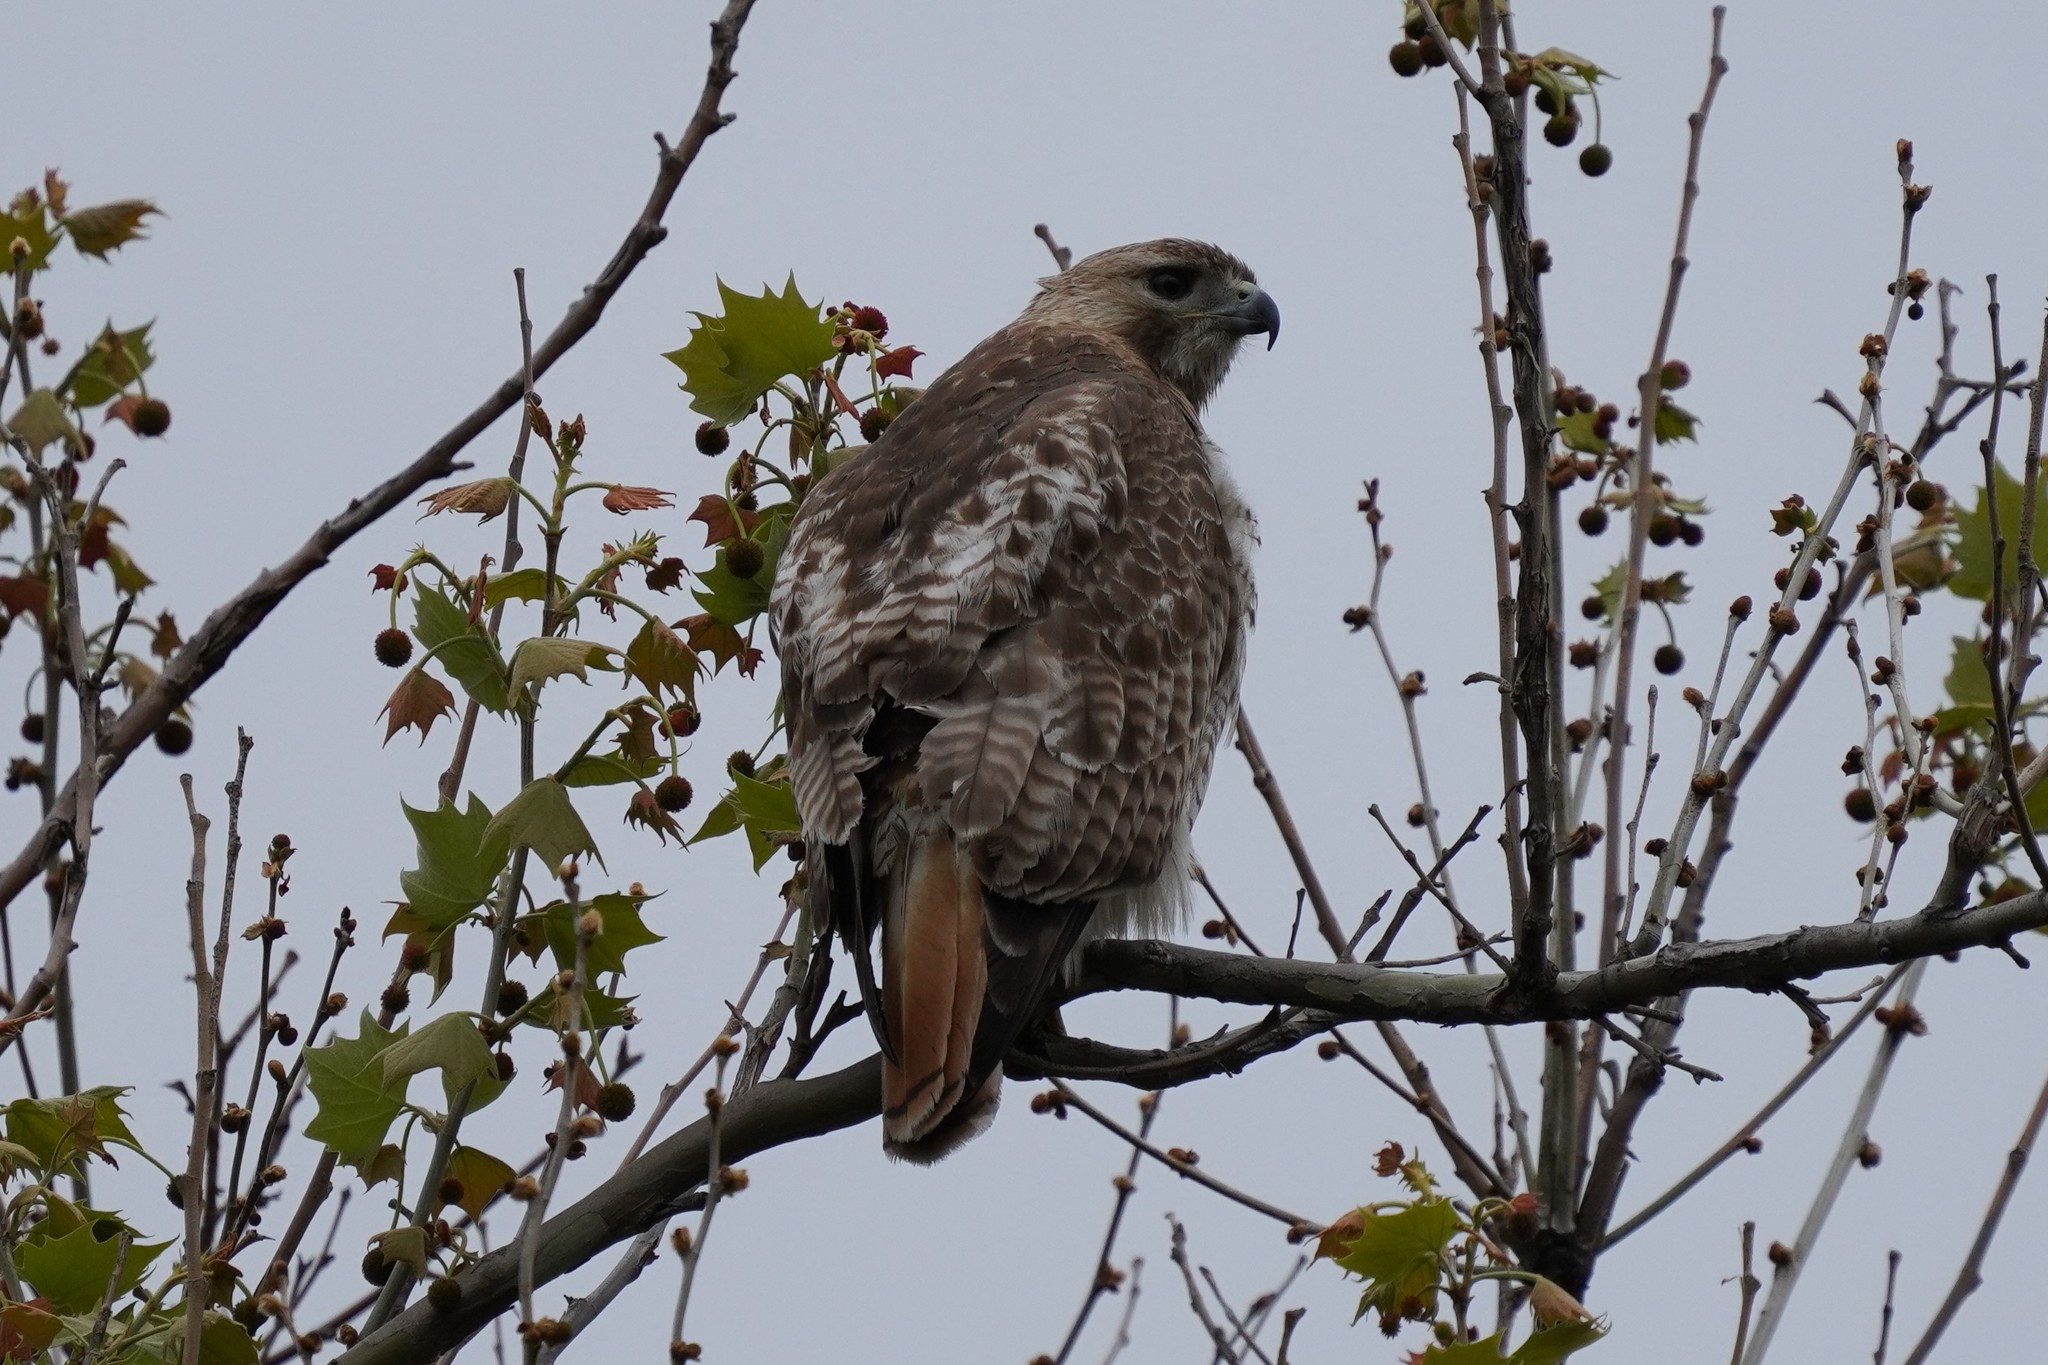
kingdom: Animalia
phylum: Chordata
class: Aves
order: Accipitriformes
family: Accipitridae
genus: Buteo
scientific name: Buteo jamaicensis
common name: Red-tailed hawk
